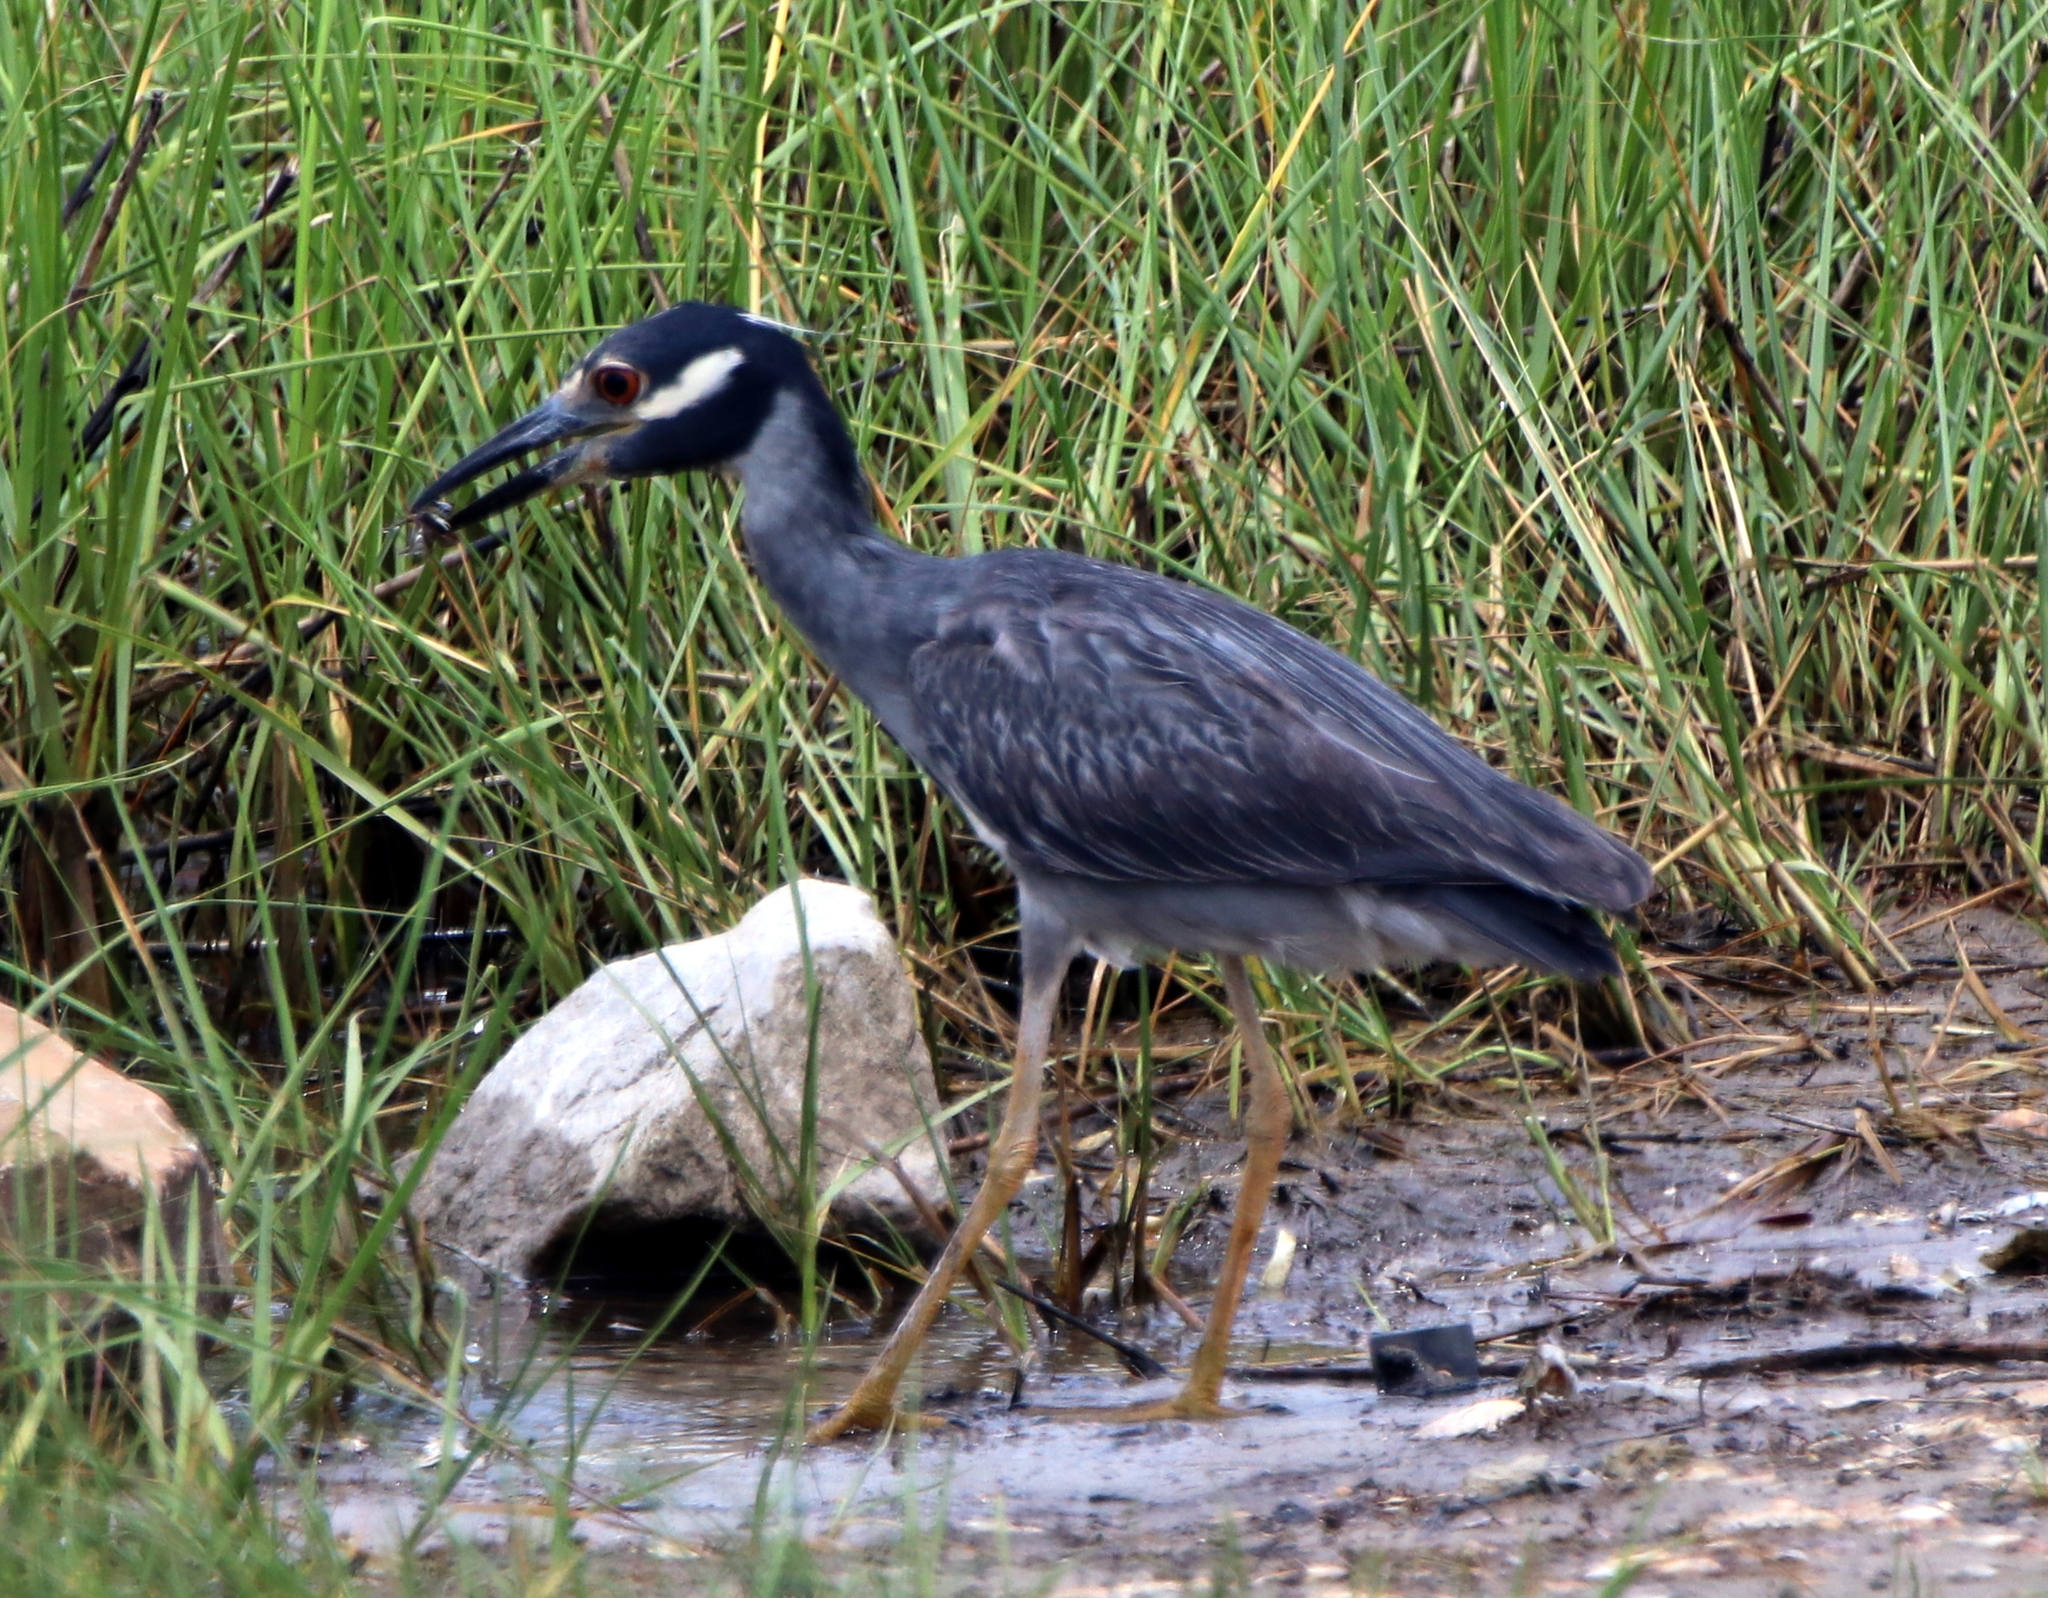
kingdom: Animalia
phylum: Chordata
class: Aves
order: Pelecaniformes
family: Ardeidae
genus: Nyctanassa
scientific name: Nyctanassa violacea
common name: Yellow-crowned night heron
